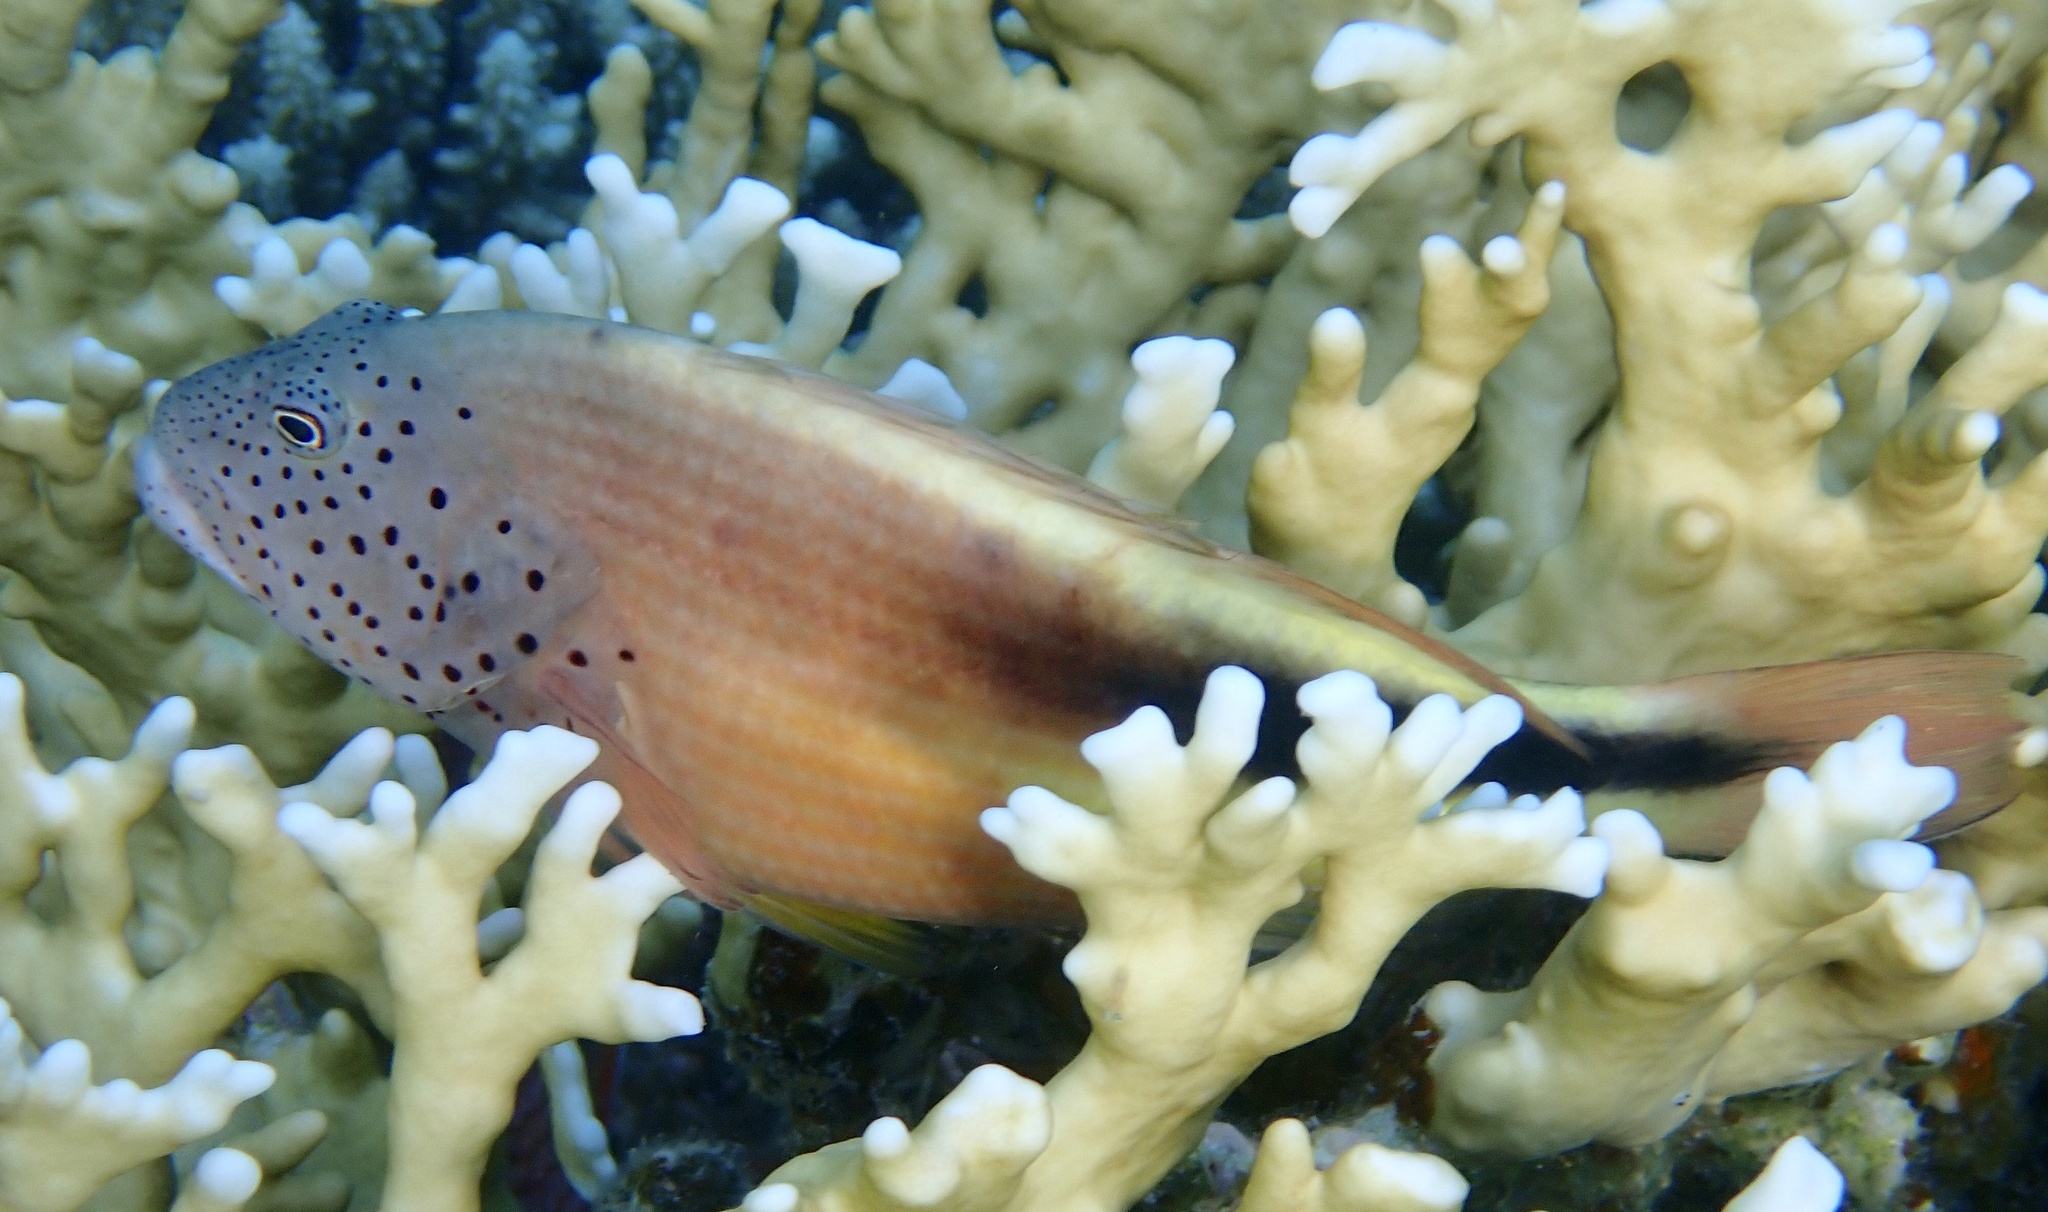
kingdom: Animalia
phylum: Chordata
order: Perciformes
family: Cirrhitidae
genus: Paracirrhites
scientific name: Paracirrhites forsteri
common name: Freckled hawkfish
